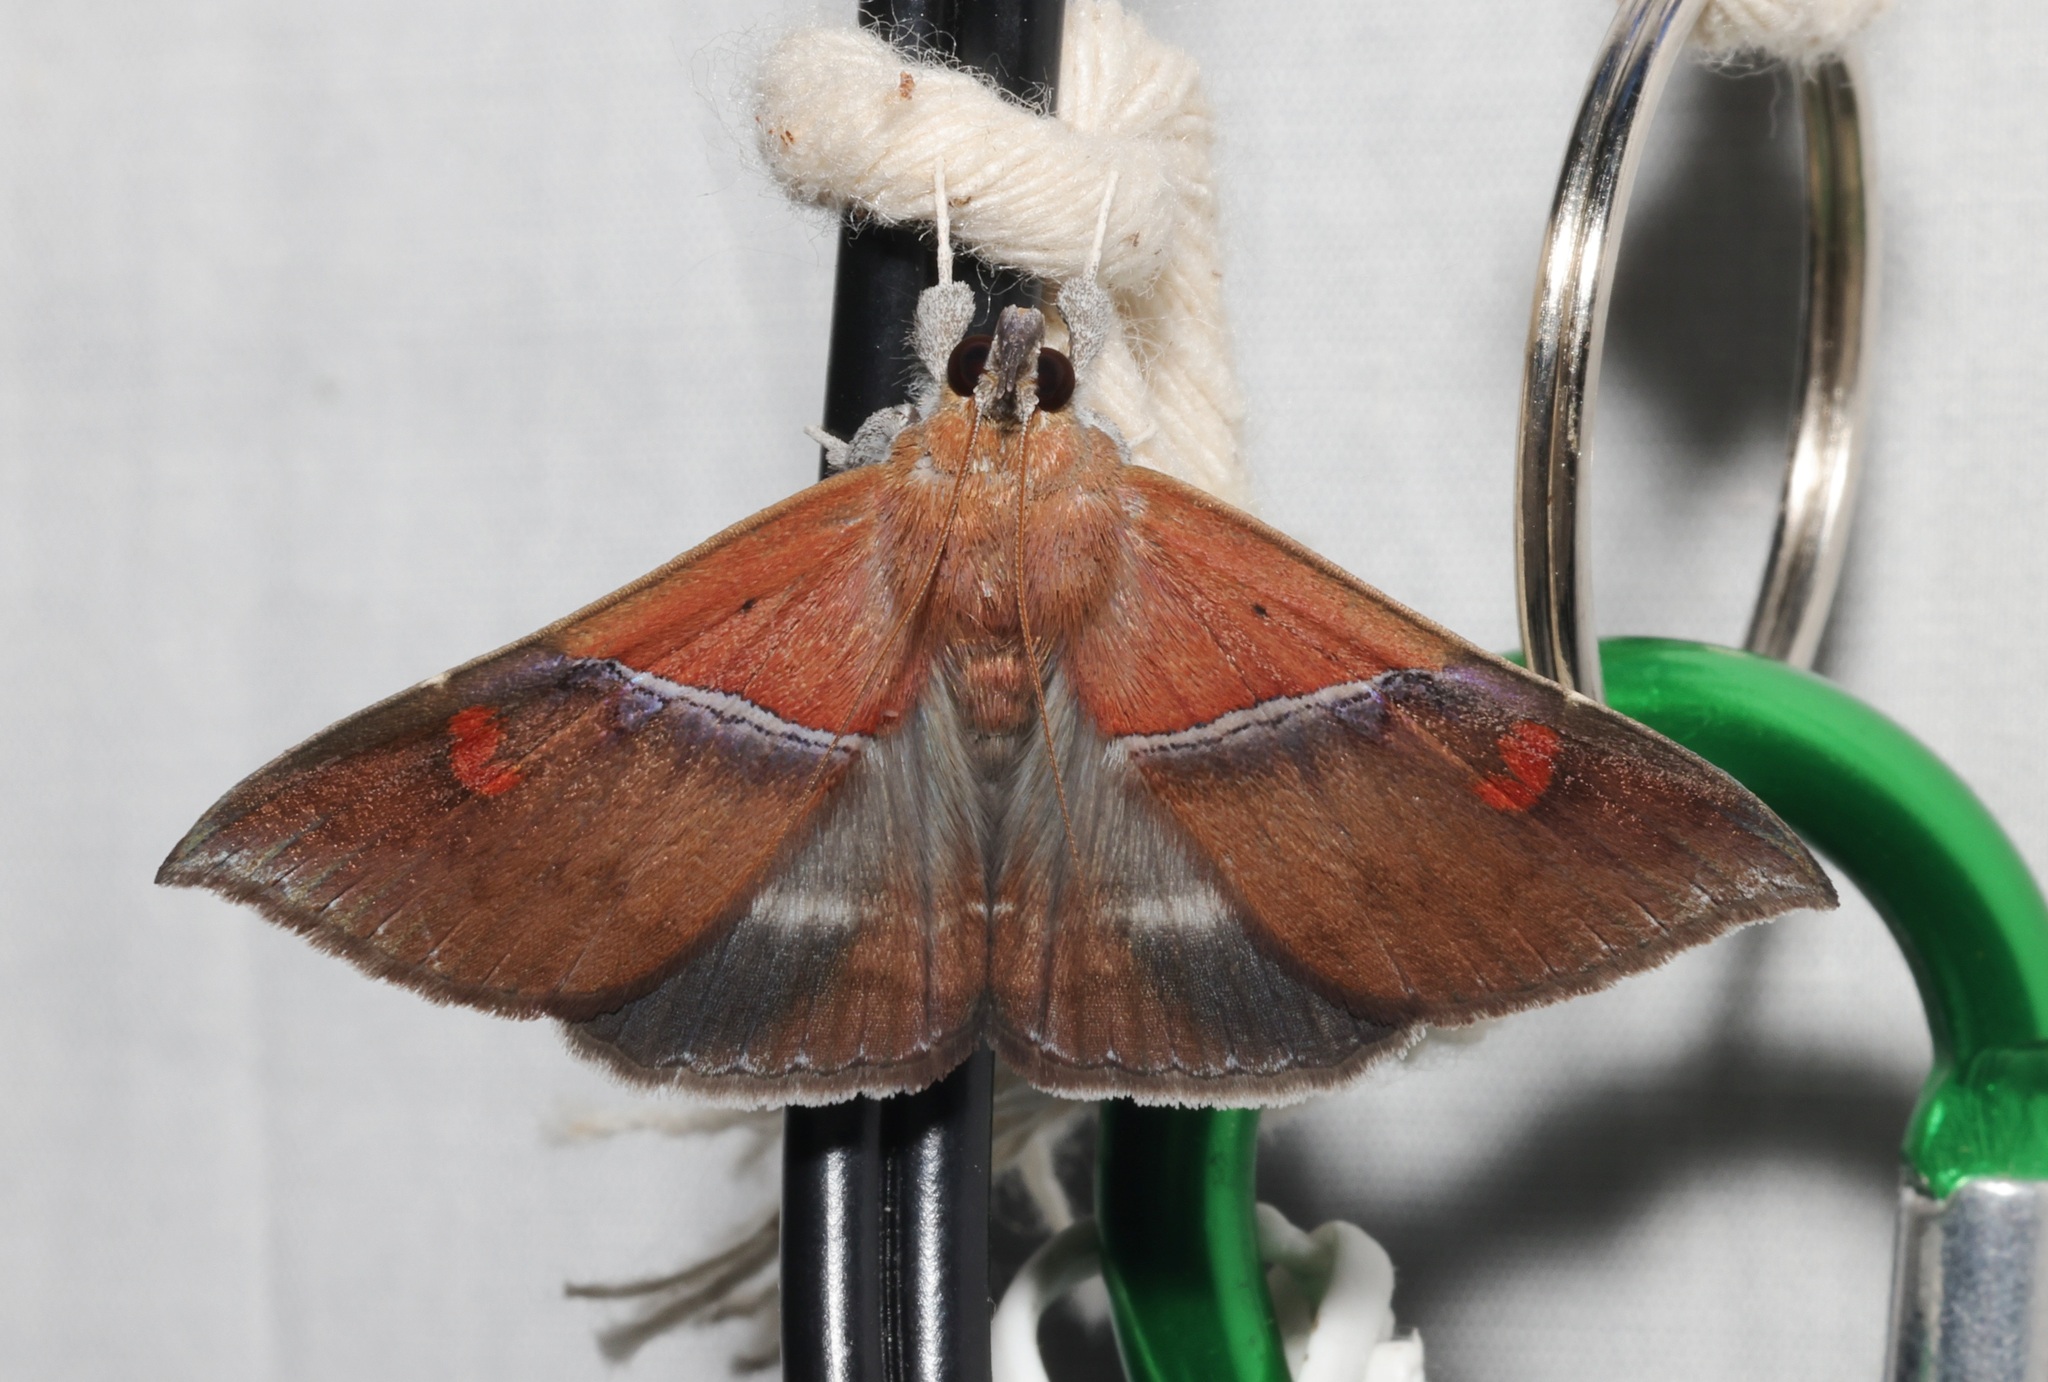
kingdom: Animalia
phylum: Arthropoda
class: Insecta
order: Lepidoptera
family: Erebidae
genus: Sympis
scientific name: Sympis rufibasis
